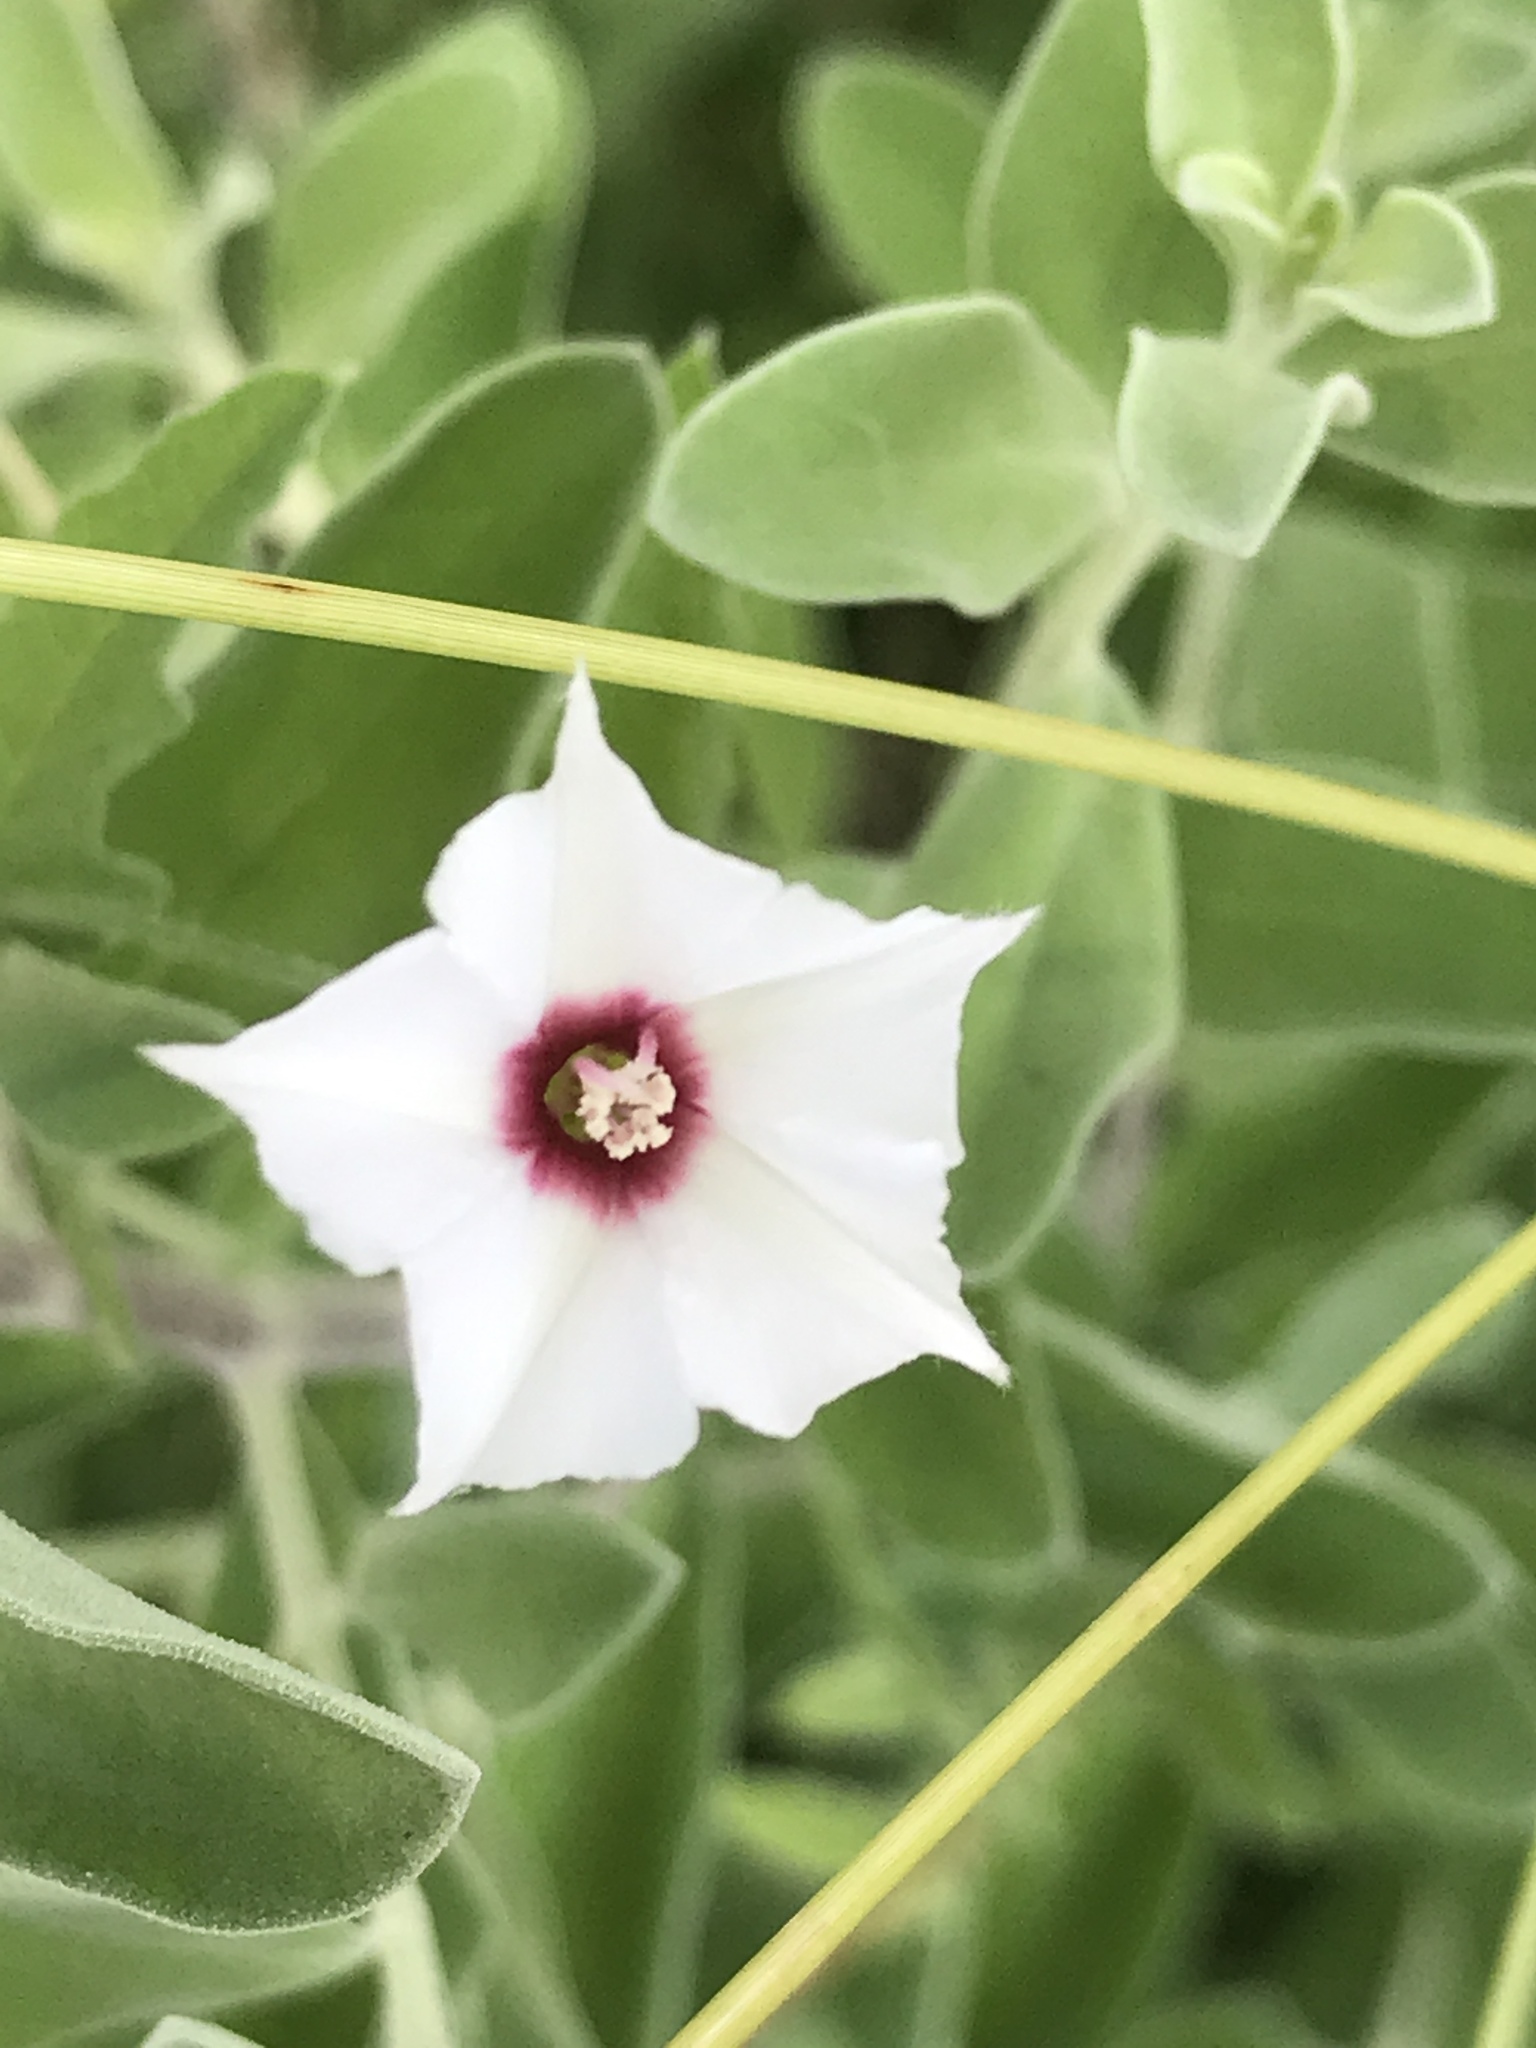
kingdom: Plantae
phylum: Tracheophyta
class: Magnoliopsida
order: Solanales
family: Convolvulaceae
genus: Convolvulus
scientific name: Convolvulus equitans
